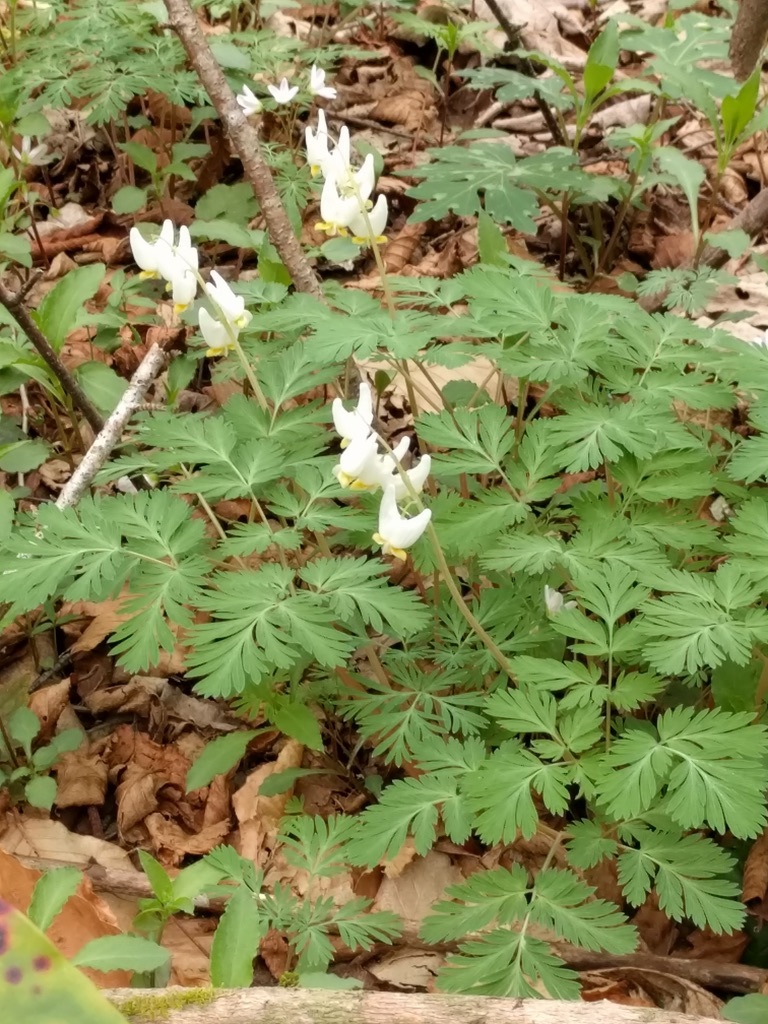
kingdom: Plantae
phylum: Tracheophyta
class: Magnoliopsida
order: Ranunculales
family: Papaveraceae
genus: Dicentra
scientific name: Dicentra cucullaria
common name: Dutchman's breeches
